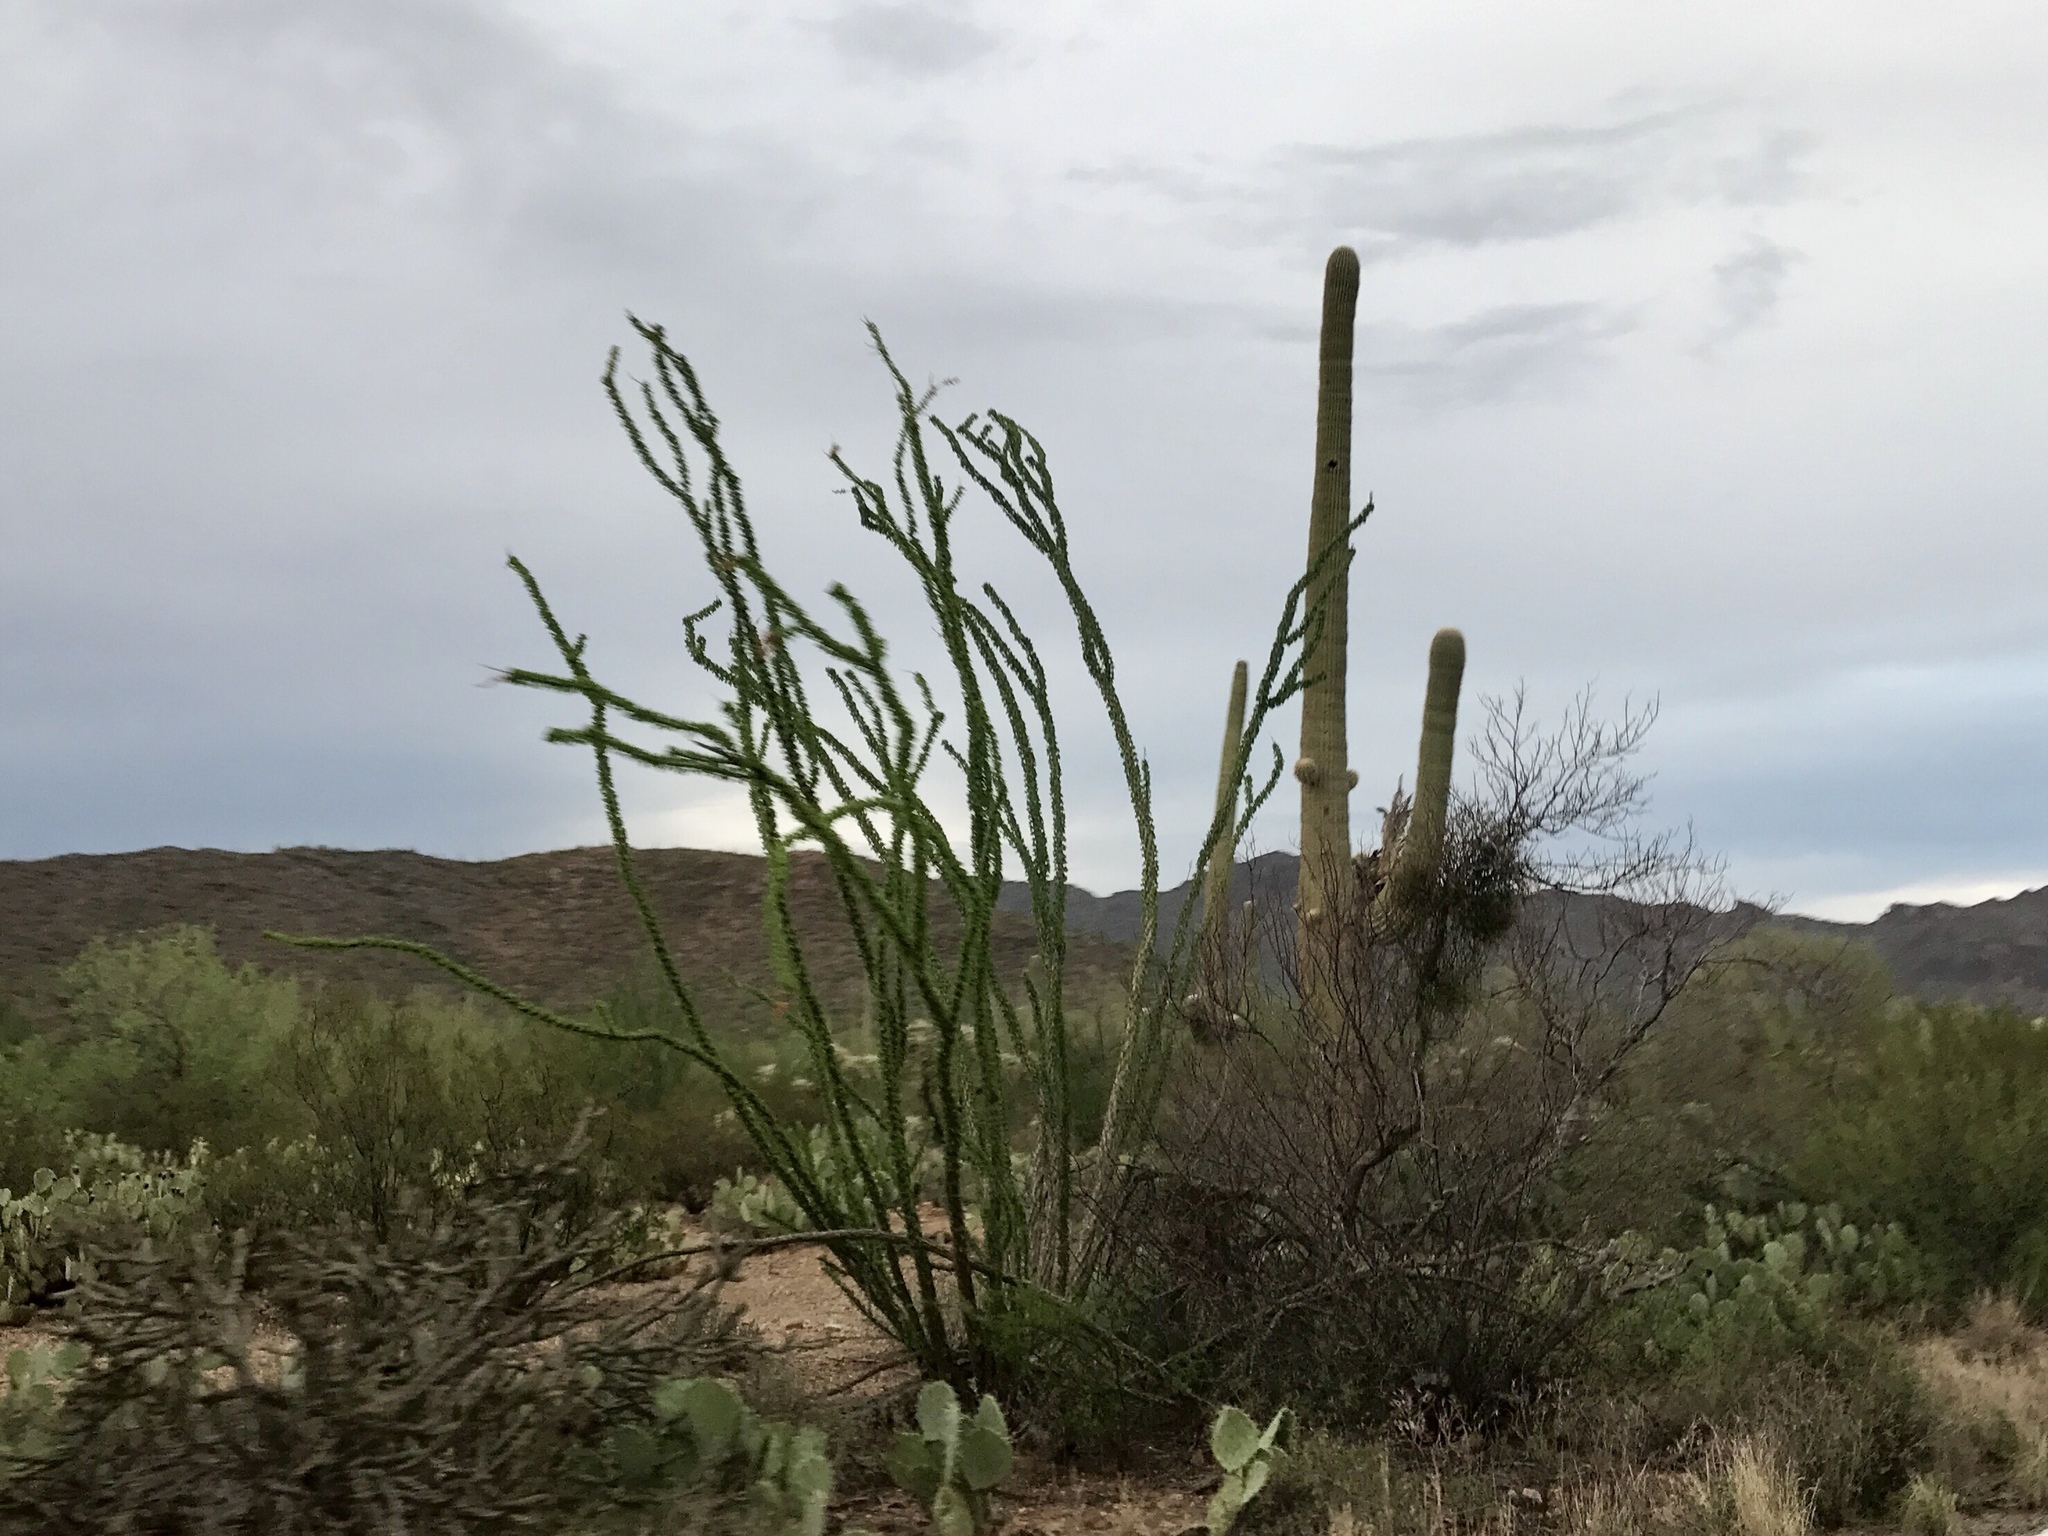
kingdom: Plantae
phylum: Tracheophyta
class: Magnoliopsida
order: Ericales
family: Fouquieriaceae
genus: Fouquieria
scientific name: Fouquieria splendens
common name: Vine-cactus
